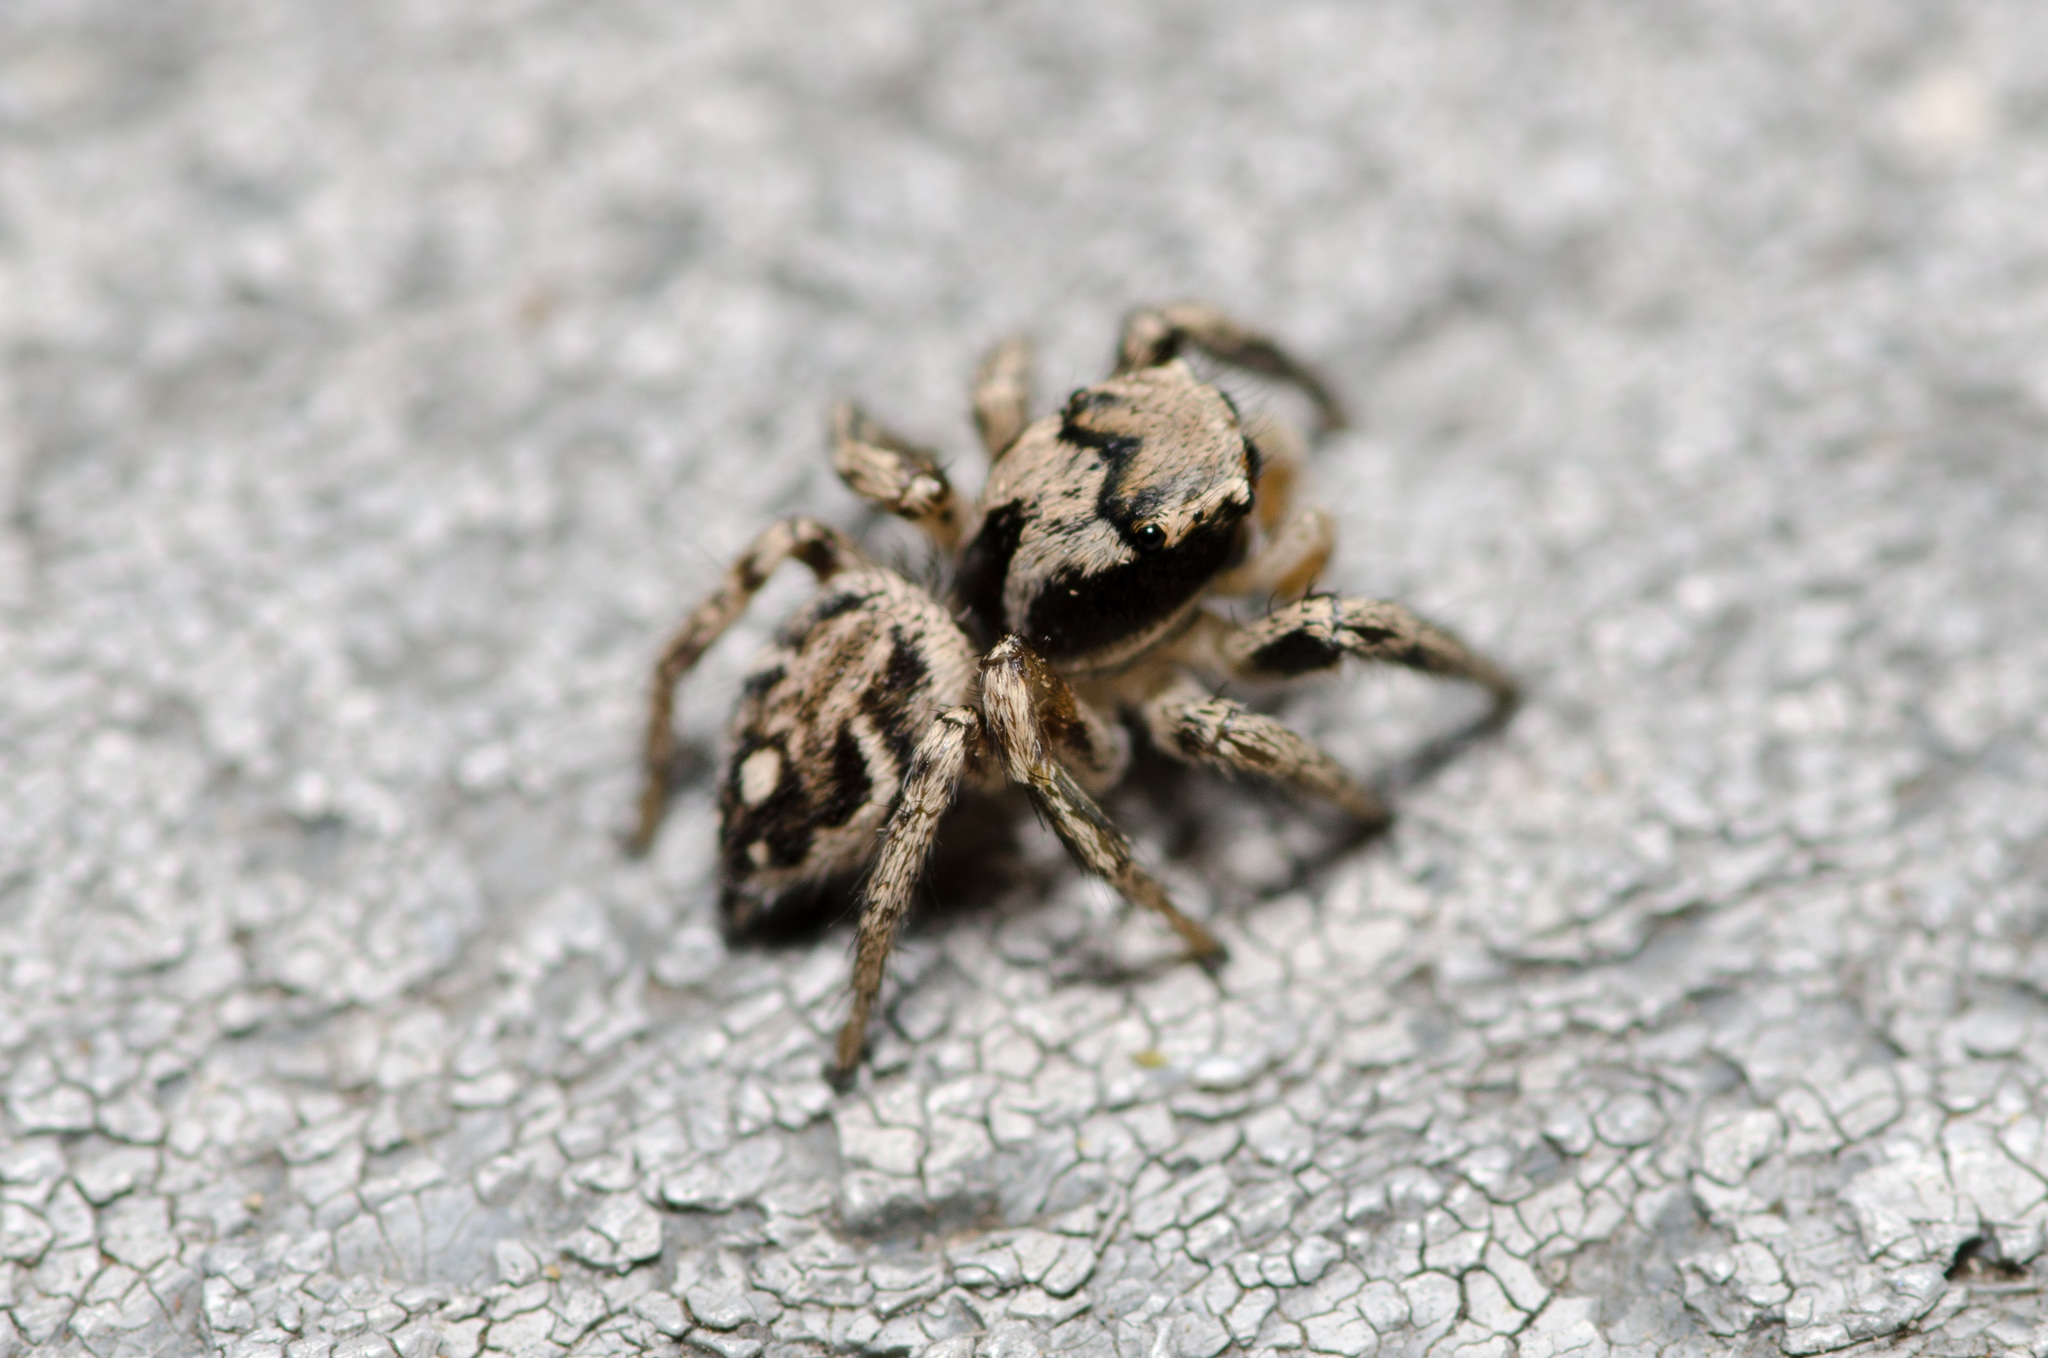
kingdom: Animalia
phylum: Arthropoda
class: Arachnida
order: Araneae
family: Salticidae
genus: Habronattus
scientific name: Habronattus coecatus
